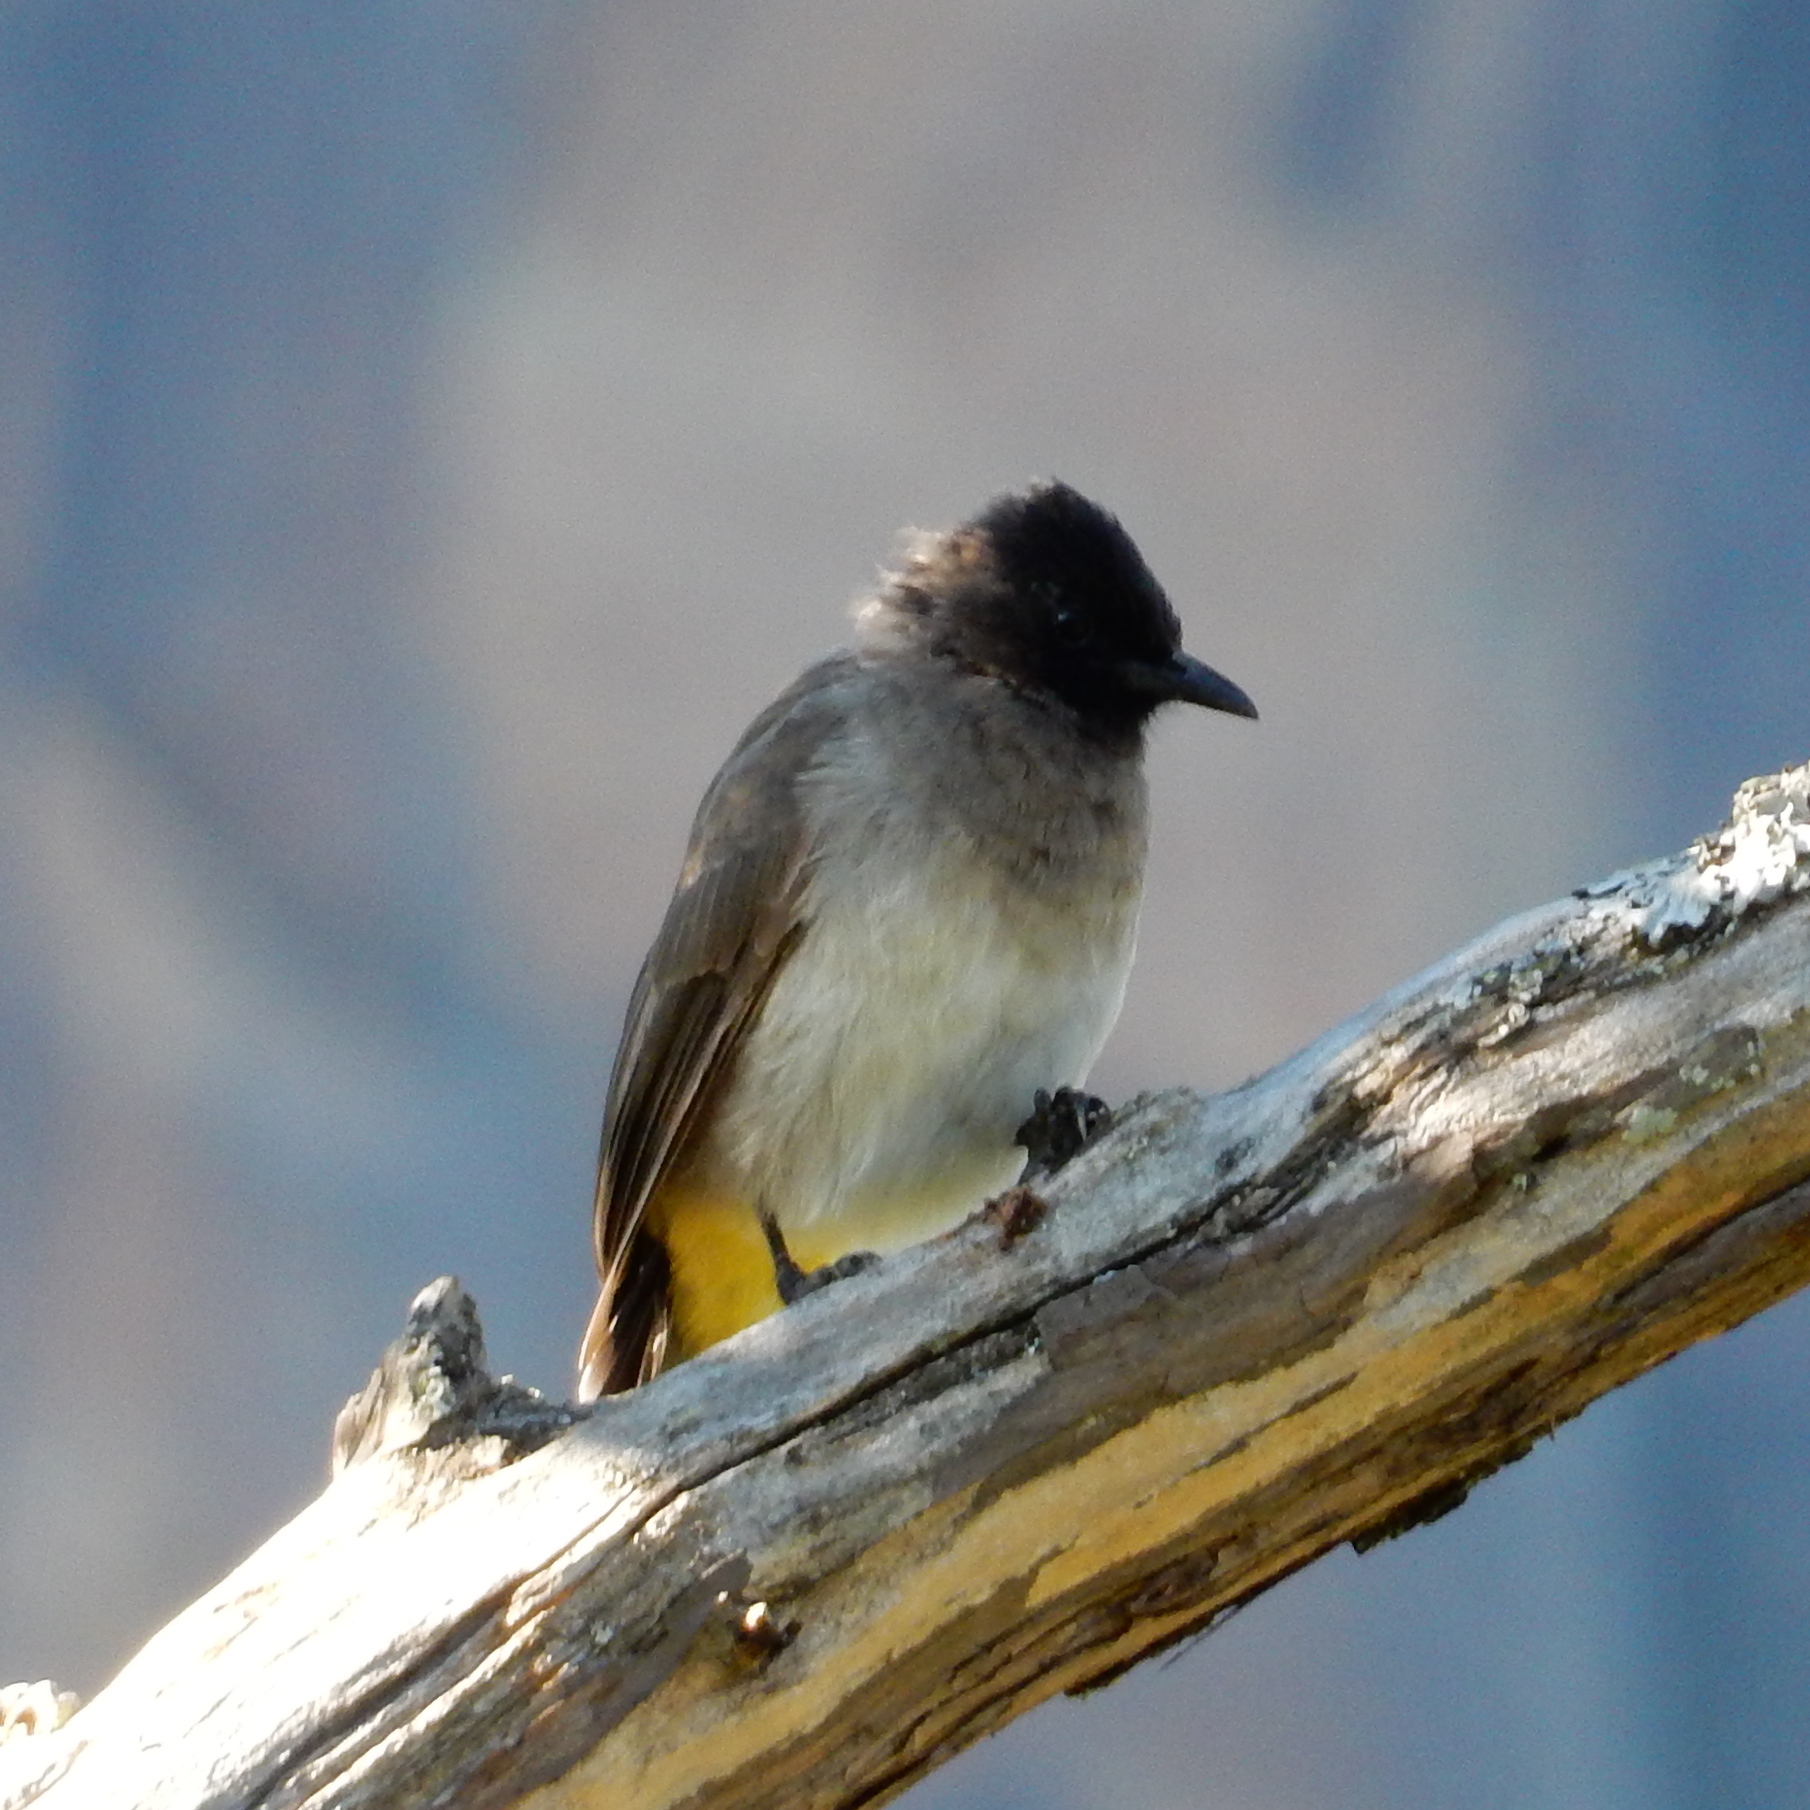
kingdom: Animalia
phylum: Chordata
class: Aves
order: Passeriformes
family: Pycnonotidae
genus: Pycnonotus
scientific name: Pycnonotus barbatus
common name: Common bulbul
